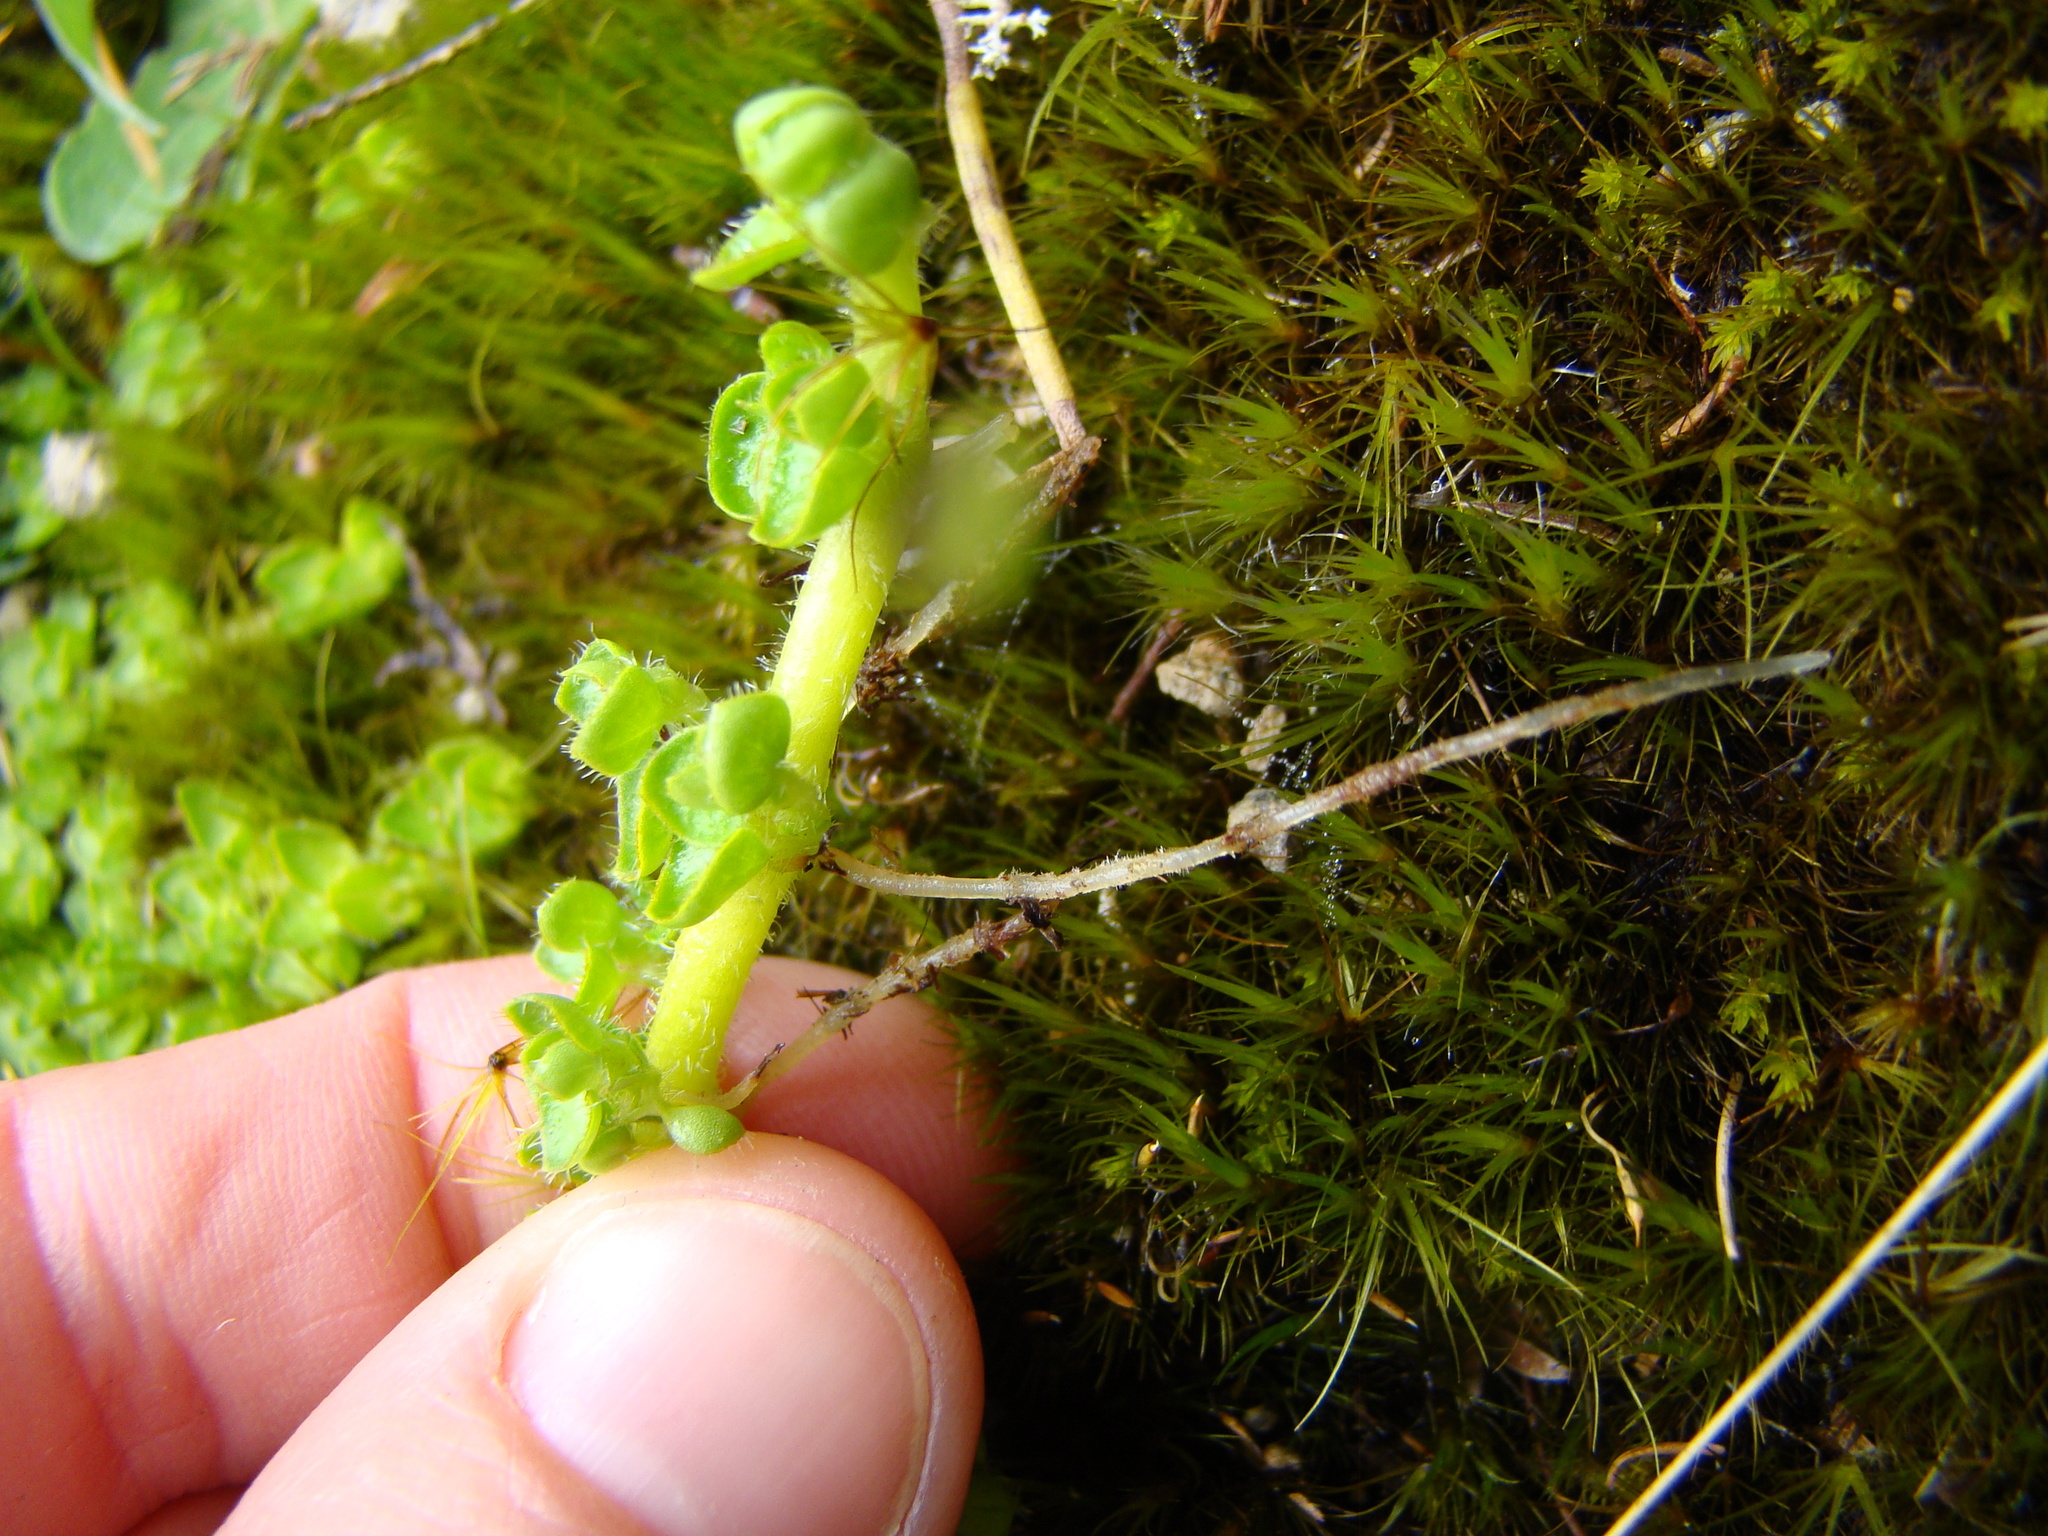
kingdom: Plantae
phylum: Tracheophyta
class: Magnoliopsida
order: Gentianales
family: Rubiaceae
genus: Nertera
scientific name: Nertera ciliata
